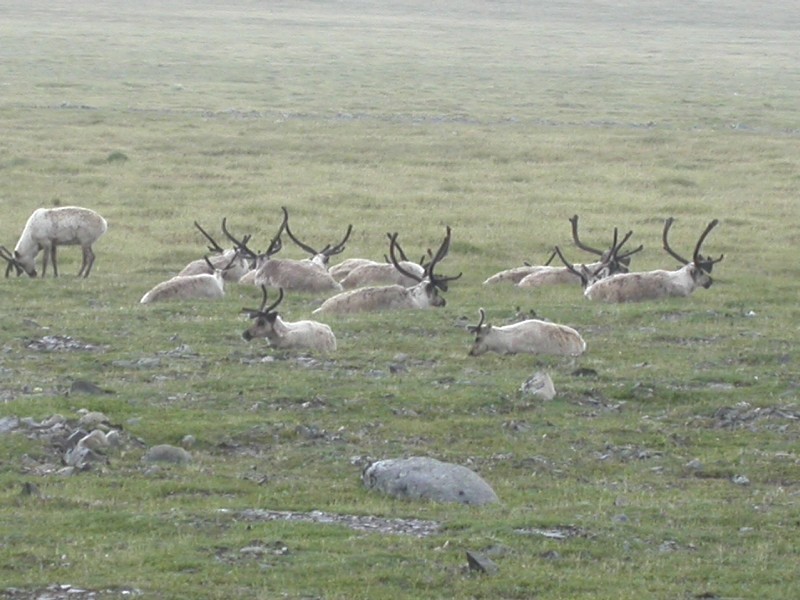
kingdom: Animalia
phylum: Chordata
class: Mammalia
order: Artiodactyla
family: Cervidae
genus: Rangifer
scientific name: Rangifer tarandus
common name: Reindeer
